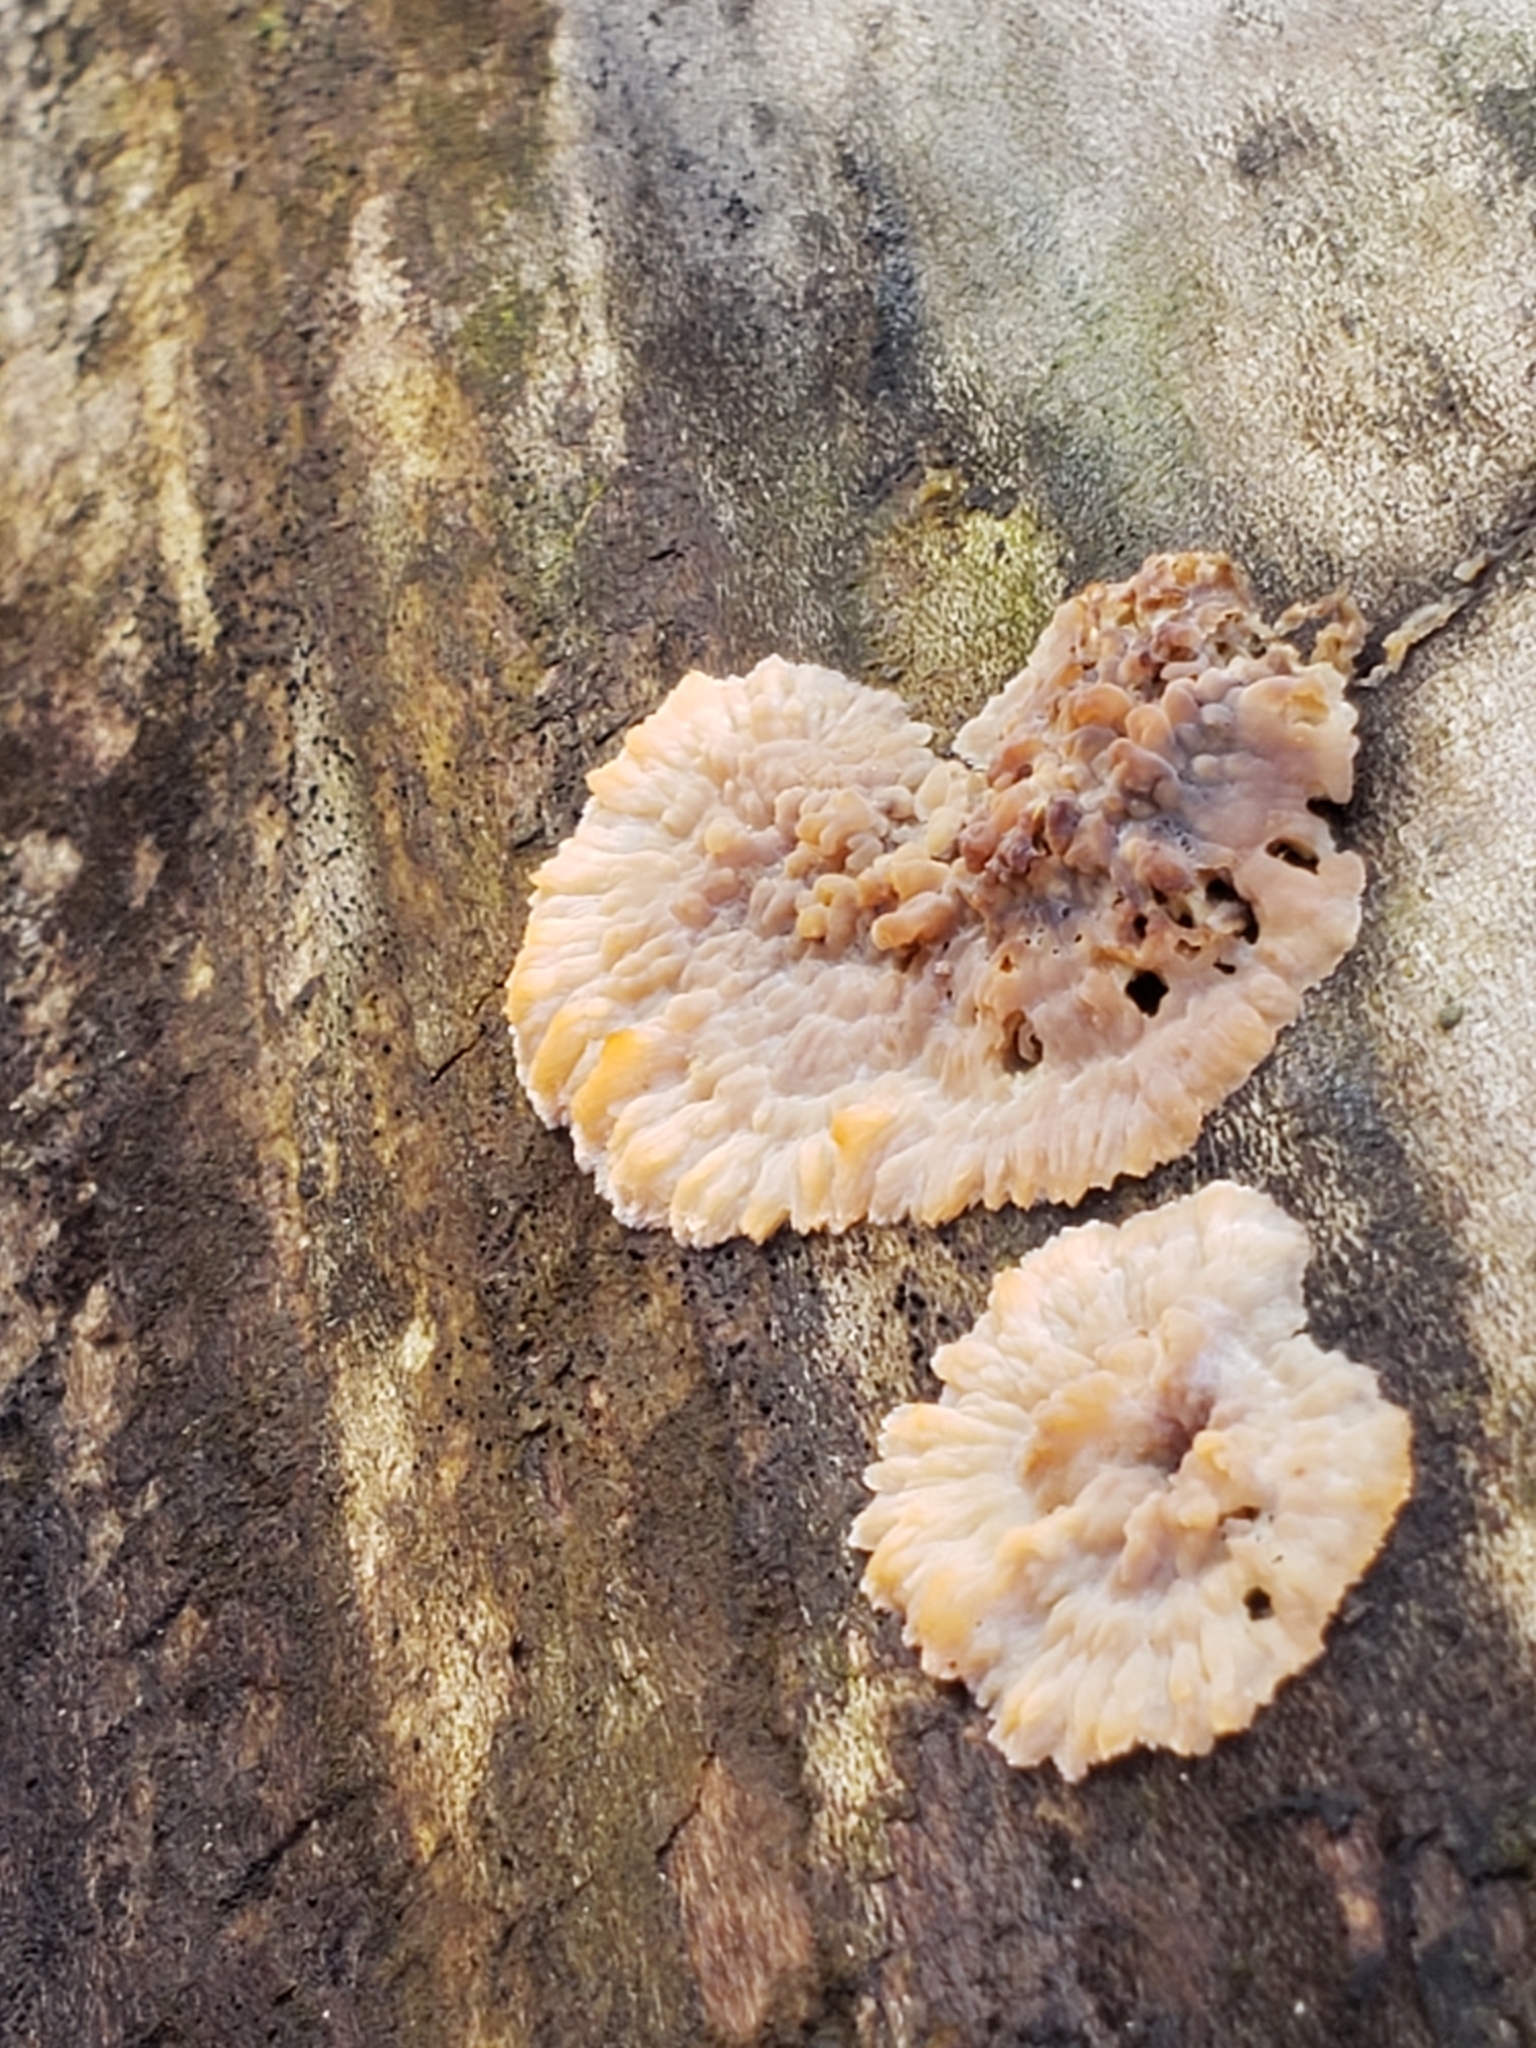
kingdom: Fungi
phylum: Basidiomycota
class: Agaricomycetes
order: Polyporales
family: Meruliaceae
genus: Phlebia
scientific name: Phlebia radiata
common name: Wrinkled crust
